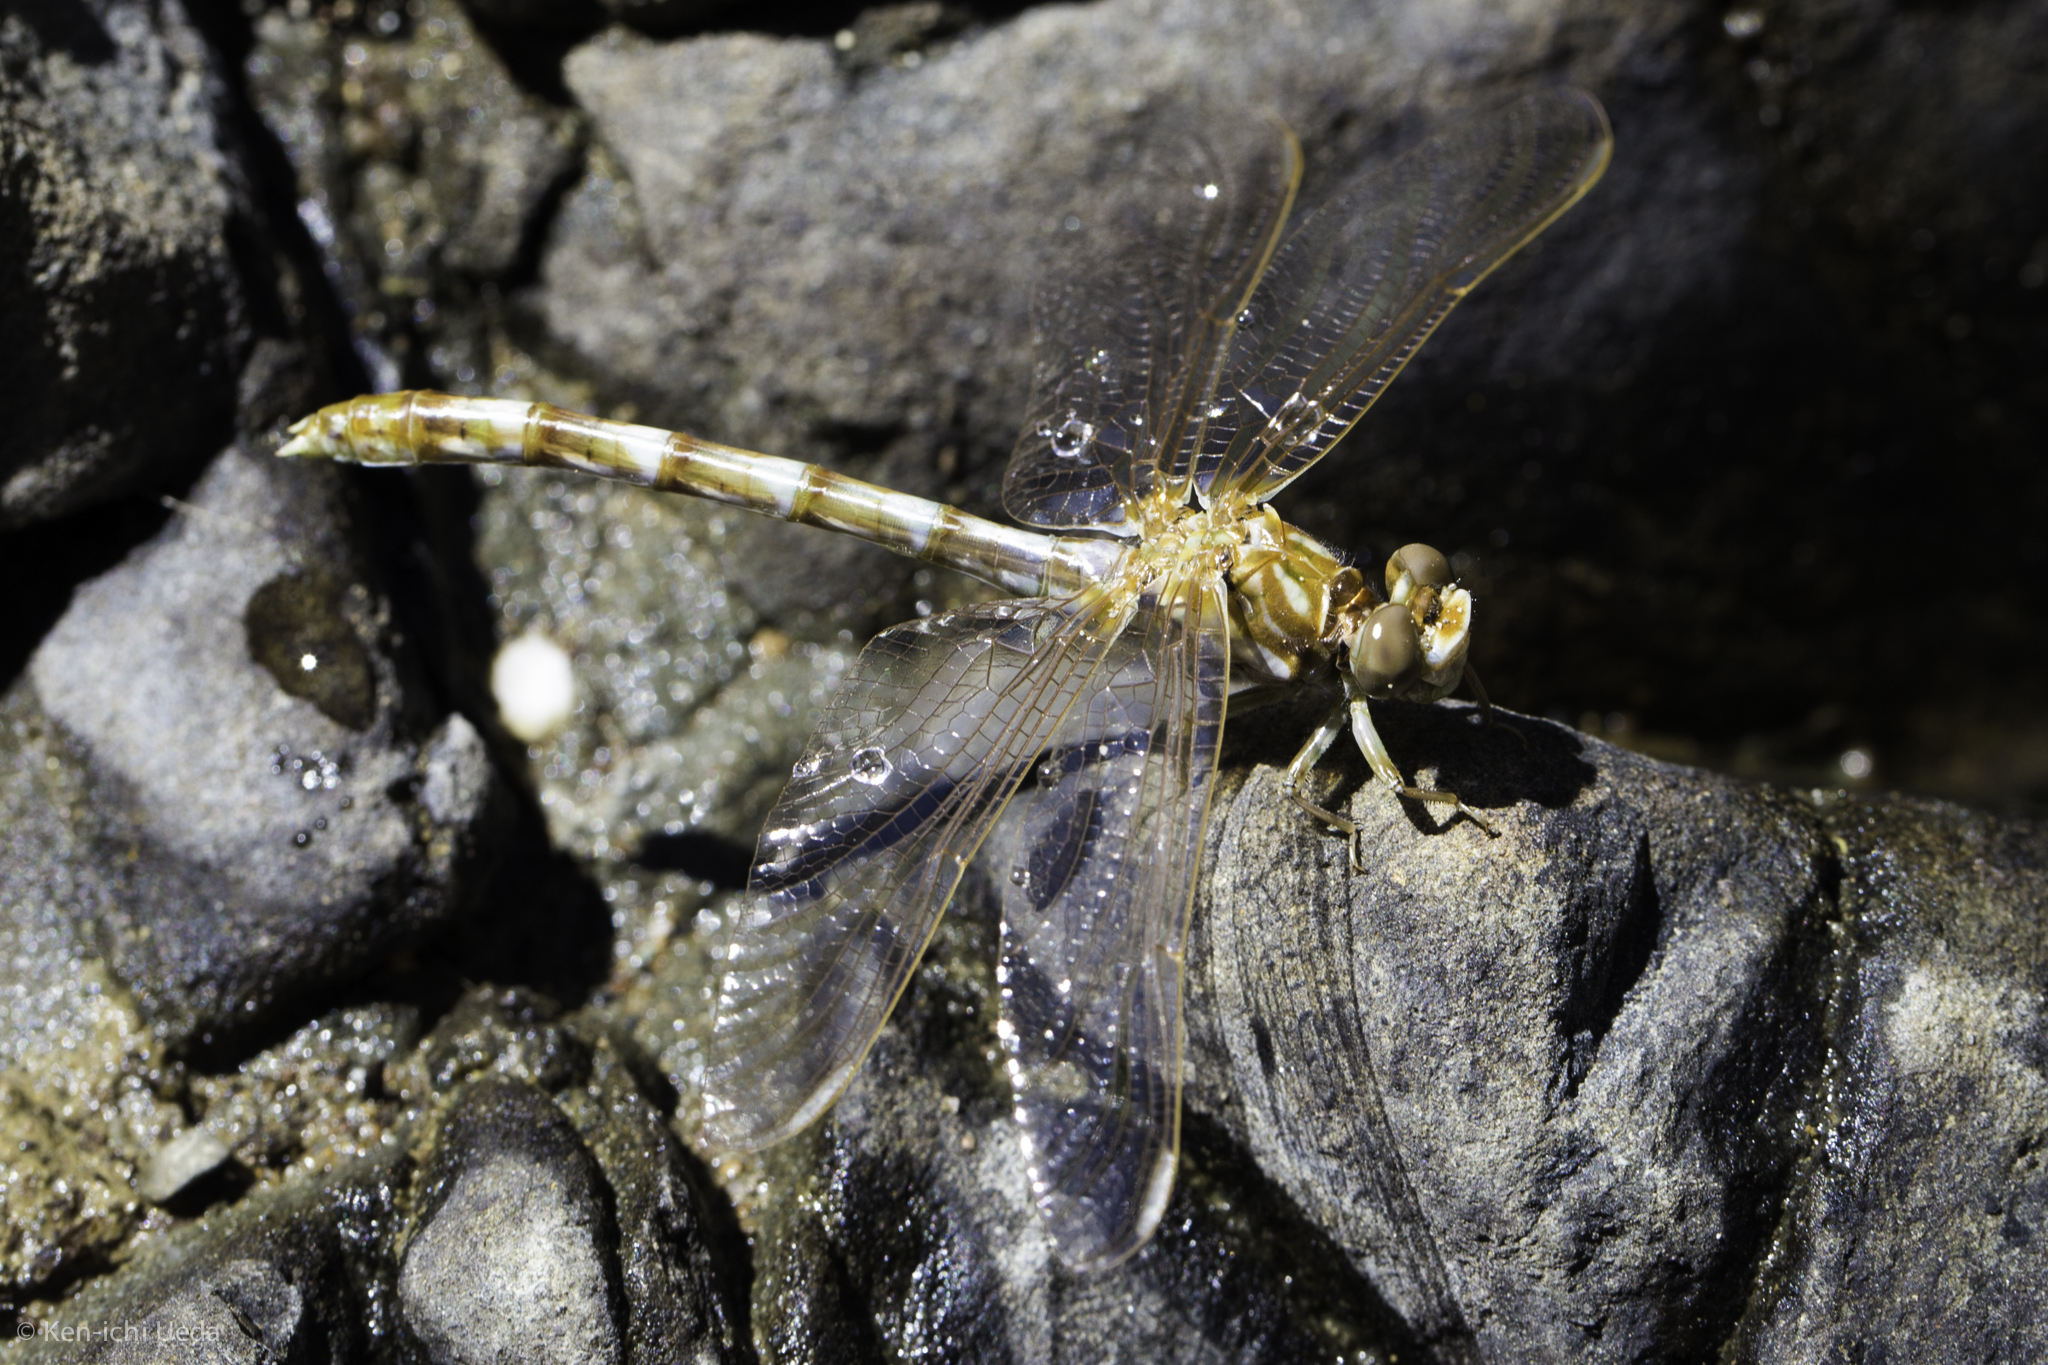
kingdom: Animalia
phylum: Arthropoda
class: Insecta
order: Odonata
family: Gomphidae
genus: Progomphus
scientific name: Progomphus borealis
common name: Gray sanddragon
